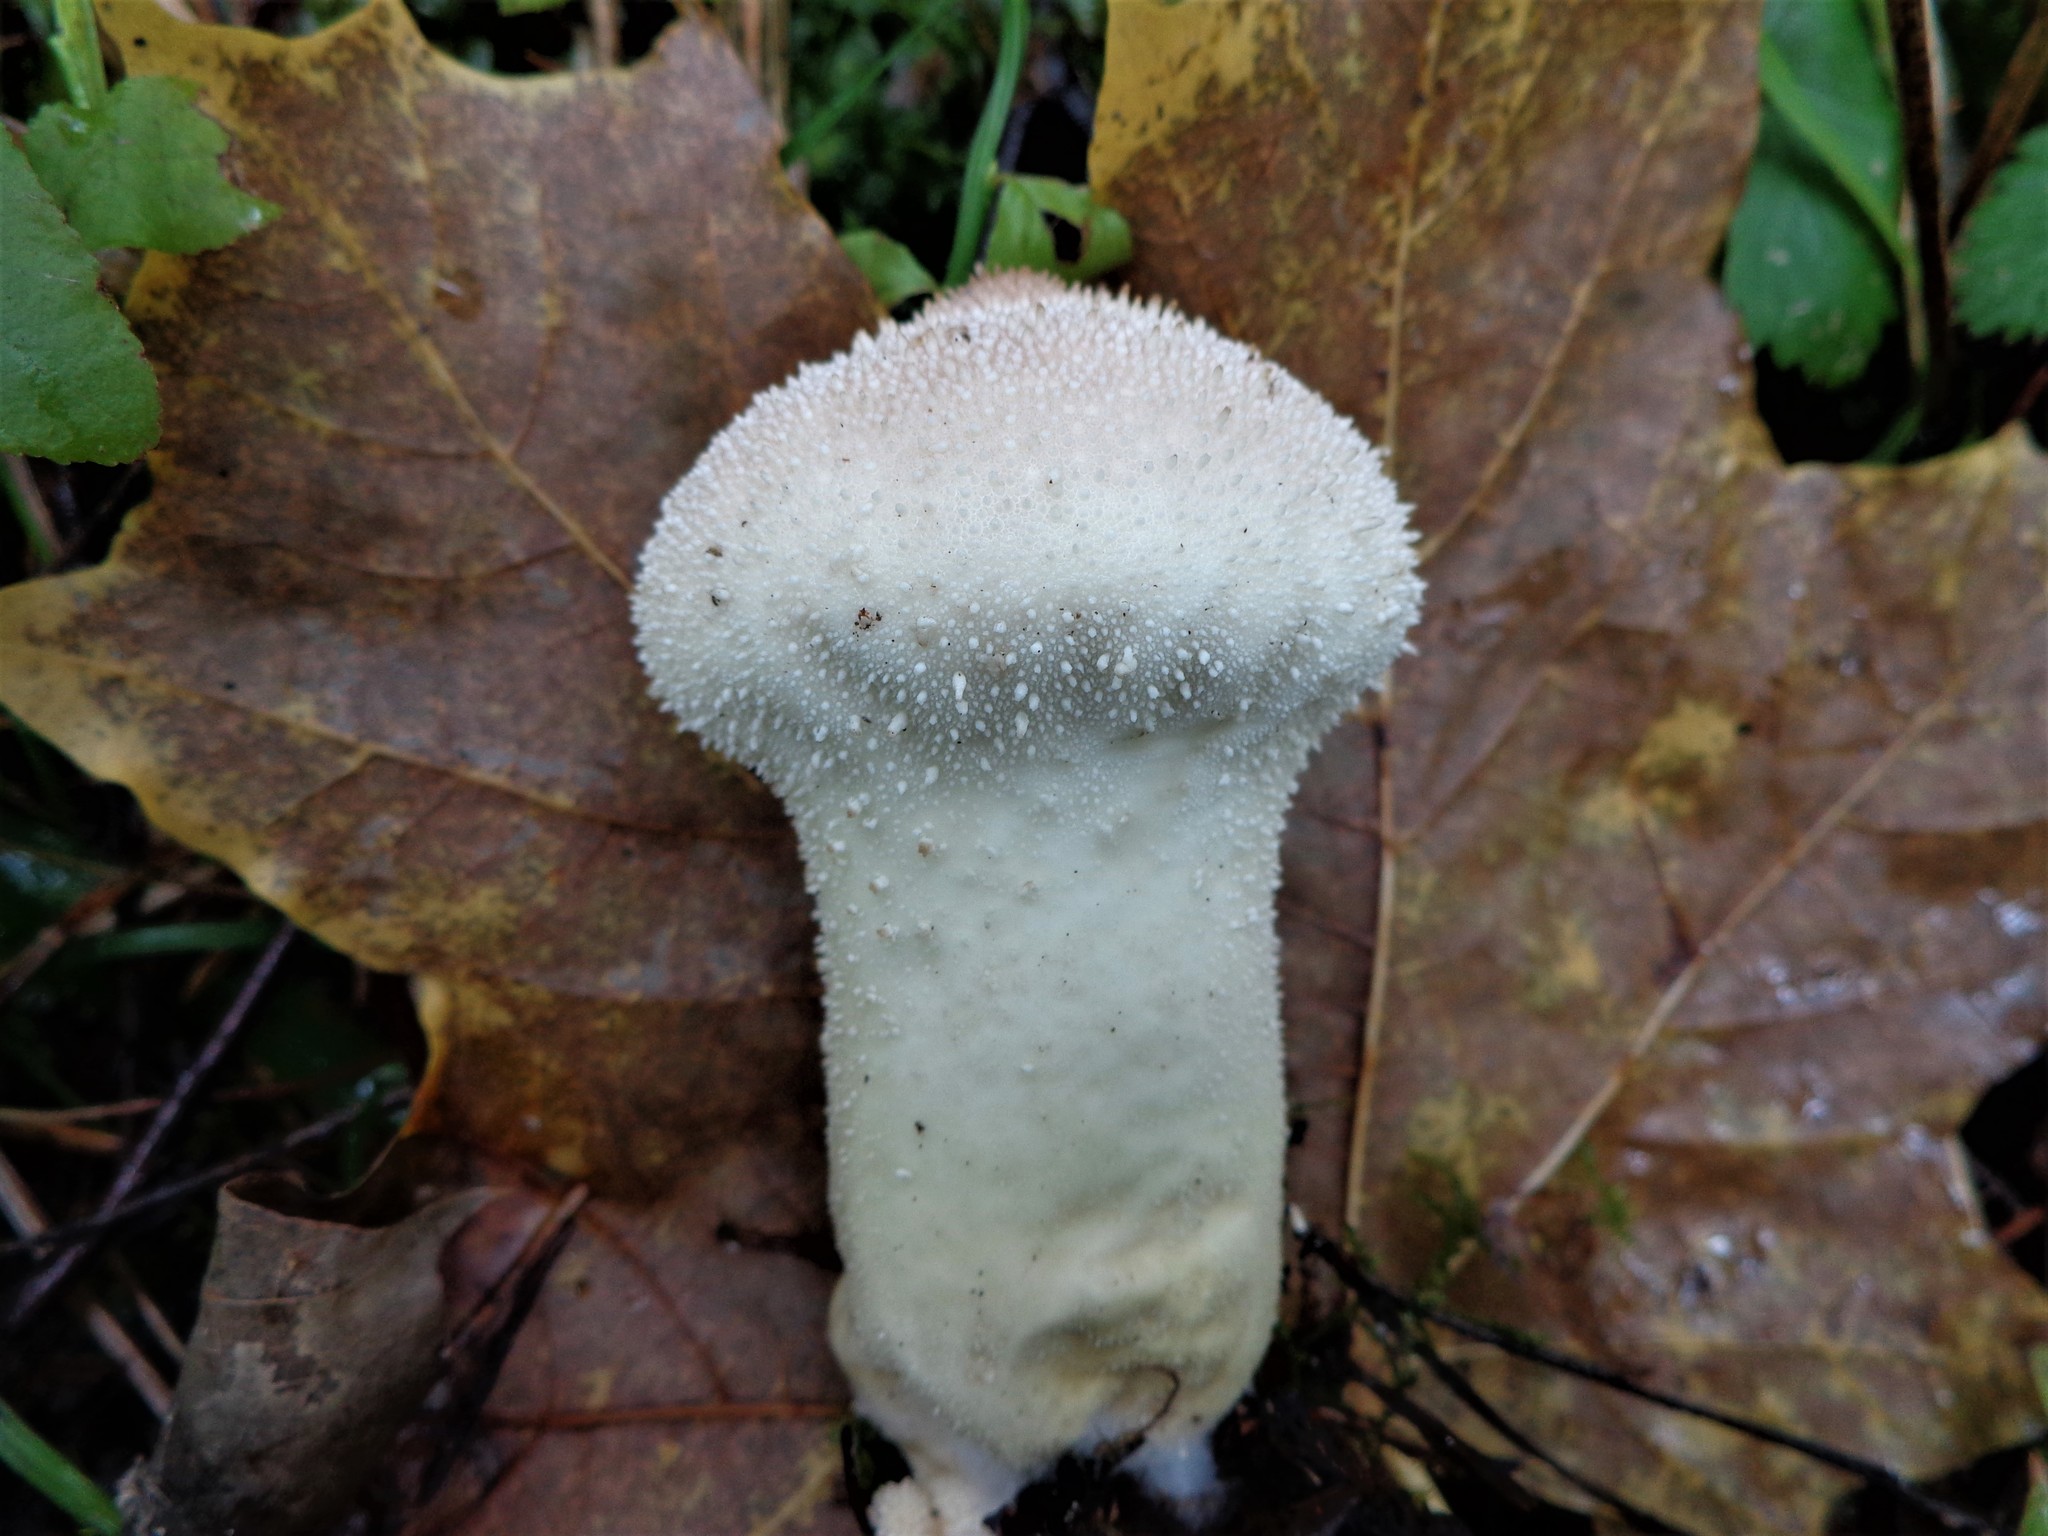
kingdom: Fungi
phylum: Basidiomycota
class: Agaricomycetes
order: Agaricales
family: Lycoperdaceae
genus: Lycoperdon
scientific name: Lycoperdon excipuliforme
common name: Pestle puffball
